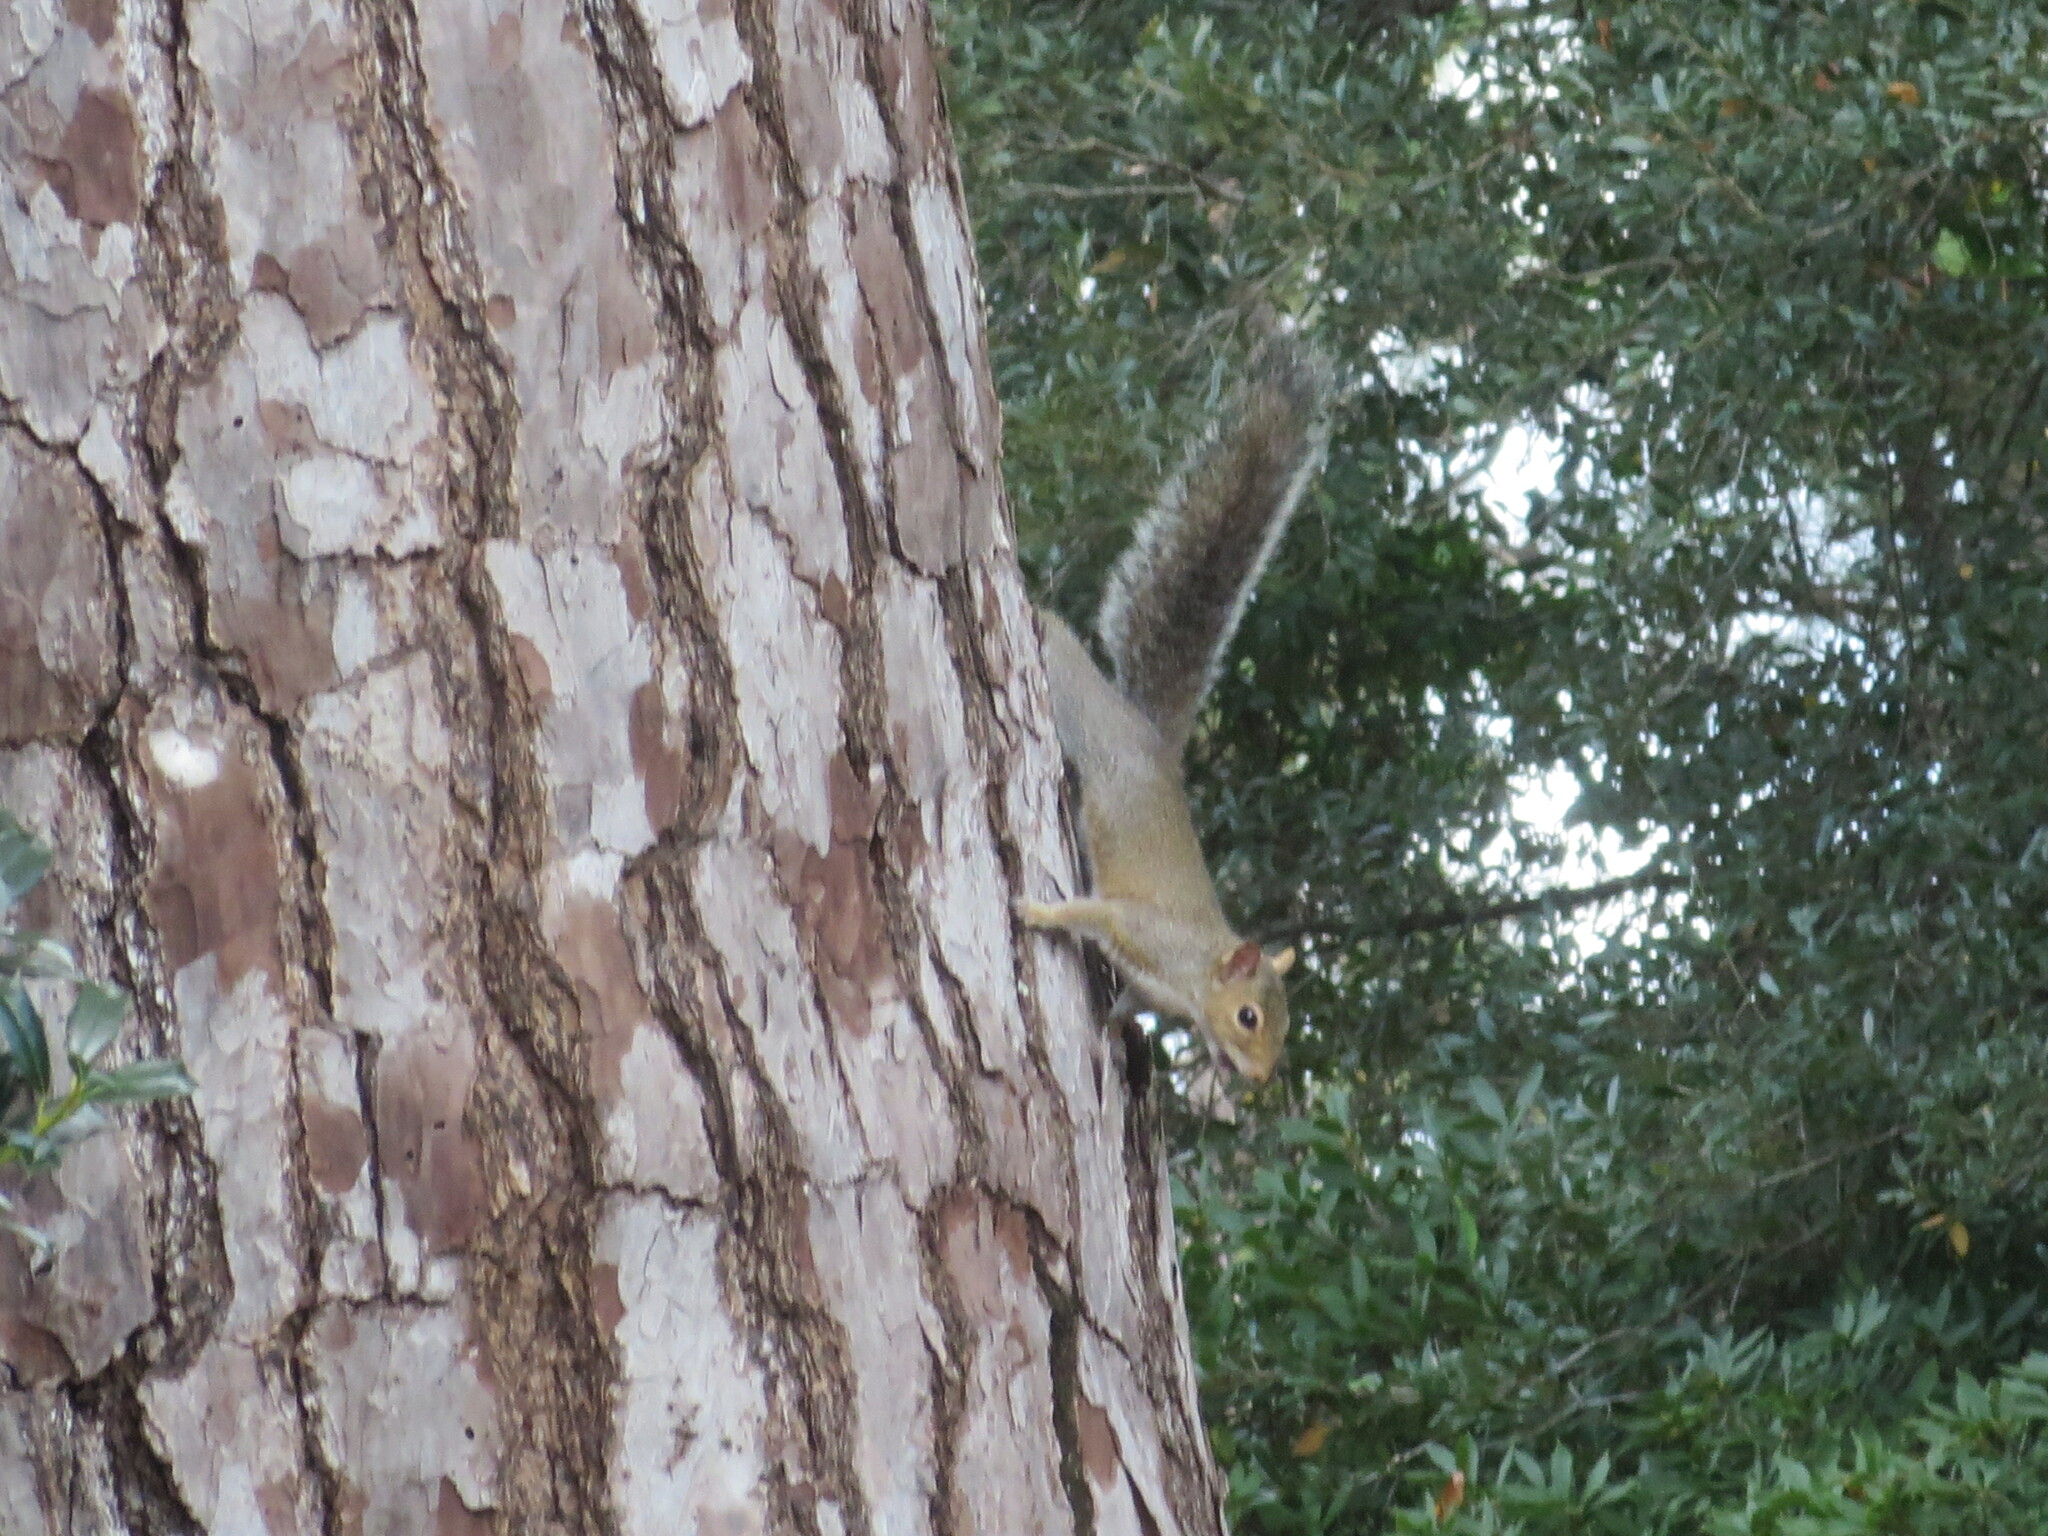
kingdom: Animalia
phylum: Chordata
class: Mammalia
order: Rodentia
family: Sciuridae
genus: Sciurus
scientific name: Sciurus carolinensis
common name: Eastern gray squirrel
